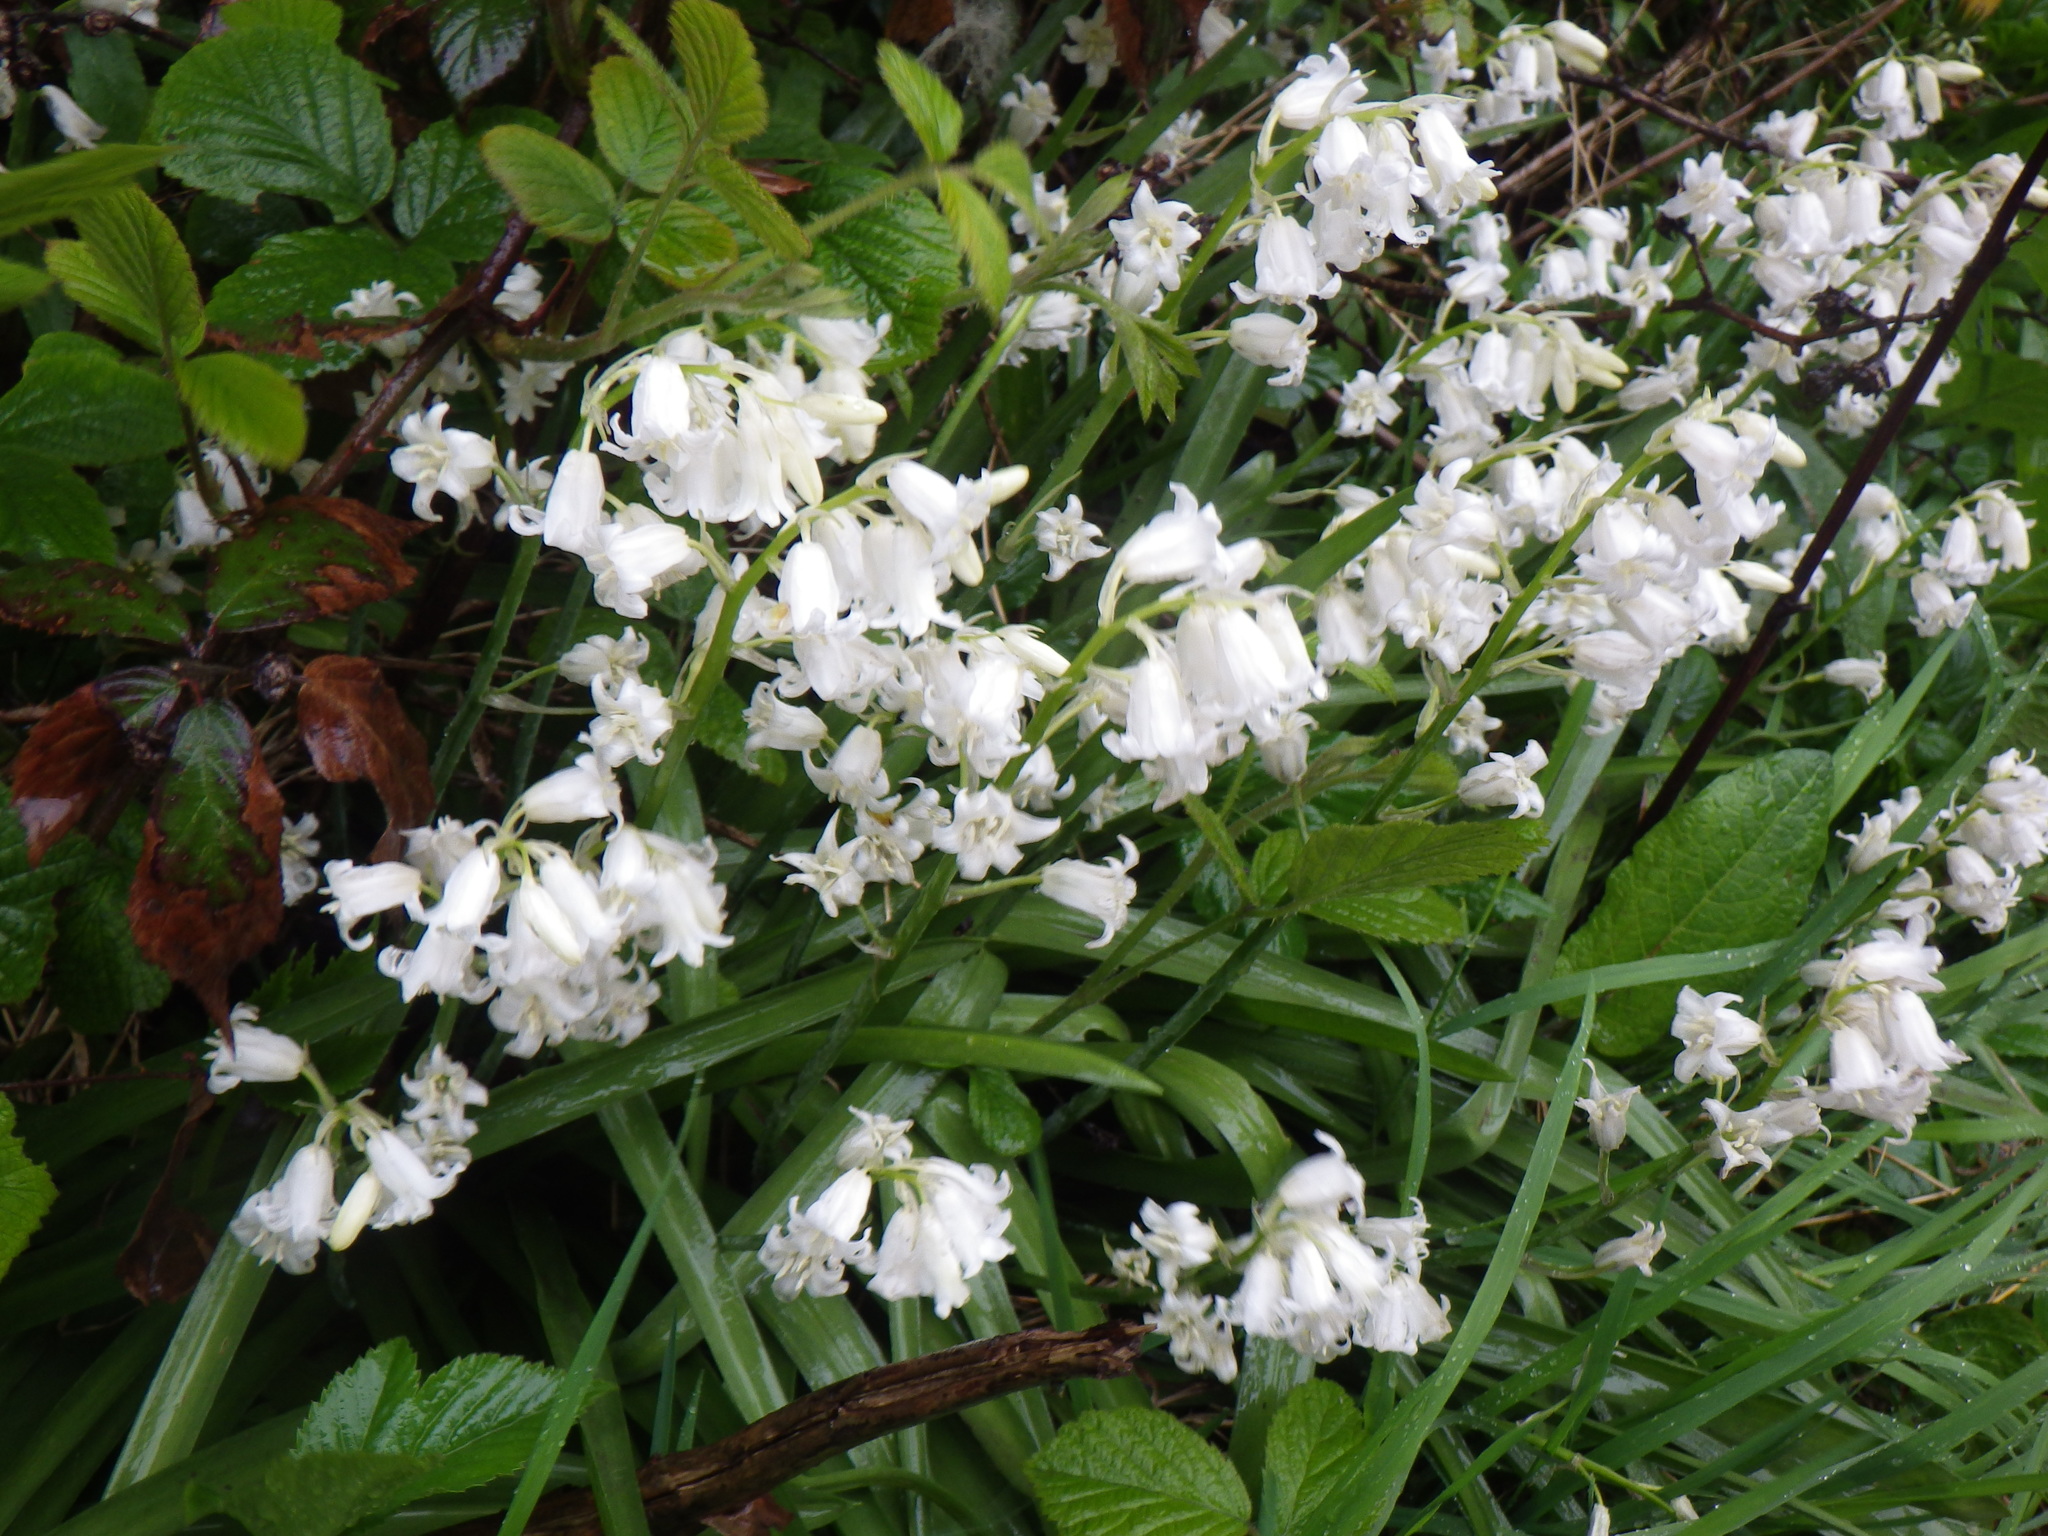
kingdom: Plantae
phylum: Tracheophyta
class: Liliopsida
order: Asparagales
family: Asparagaceae
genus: Hyacinthoides
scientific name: Hyacinthoides massartiana
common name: Hyacinthoides
